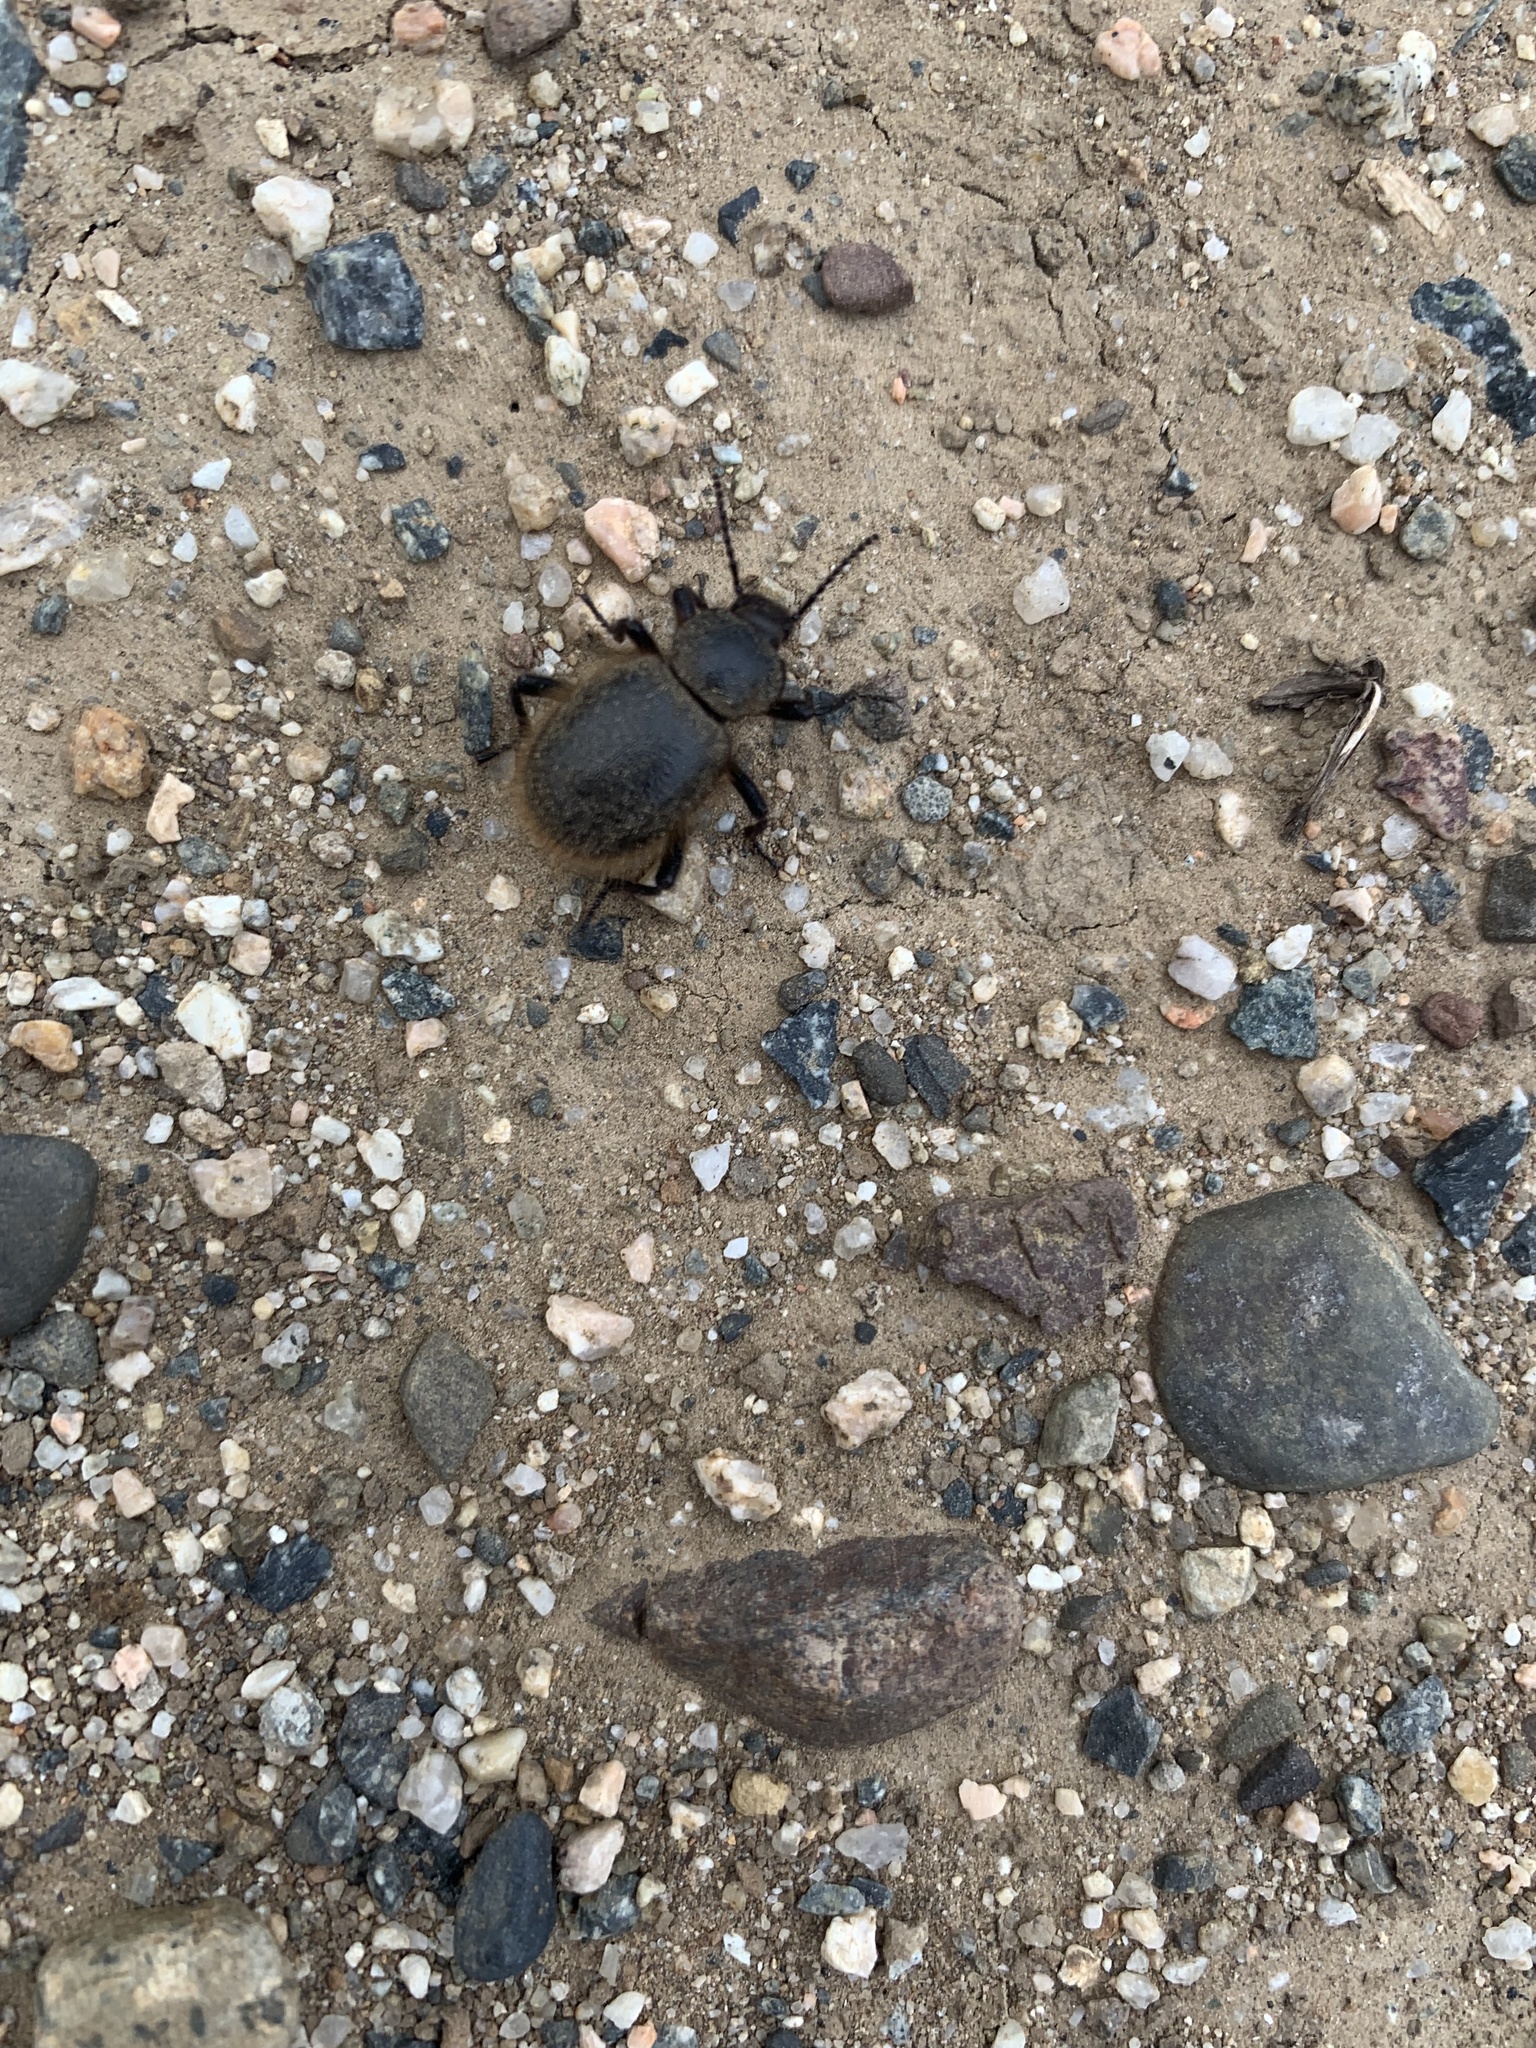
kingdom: Animalia
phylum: Arthropoda
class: Insecta
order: Coleoptera
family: Tenebrionidae
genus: Eleodes
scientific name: Eleodes osculans
